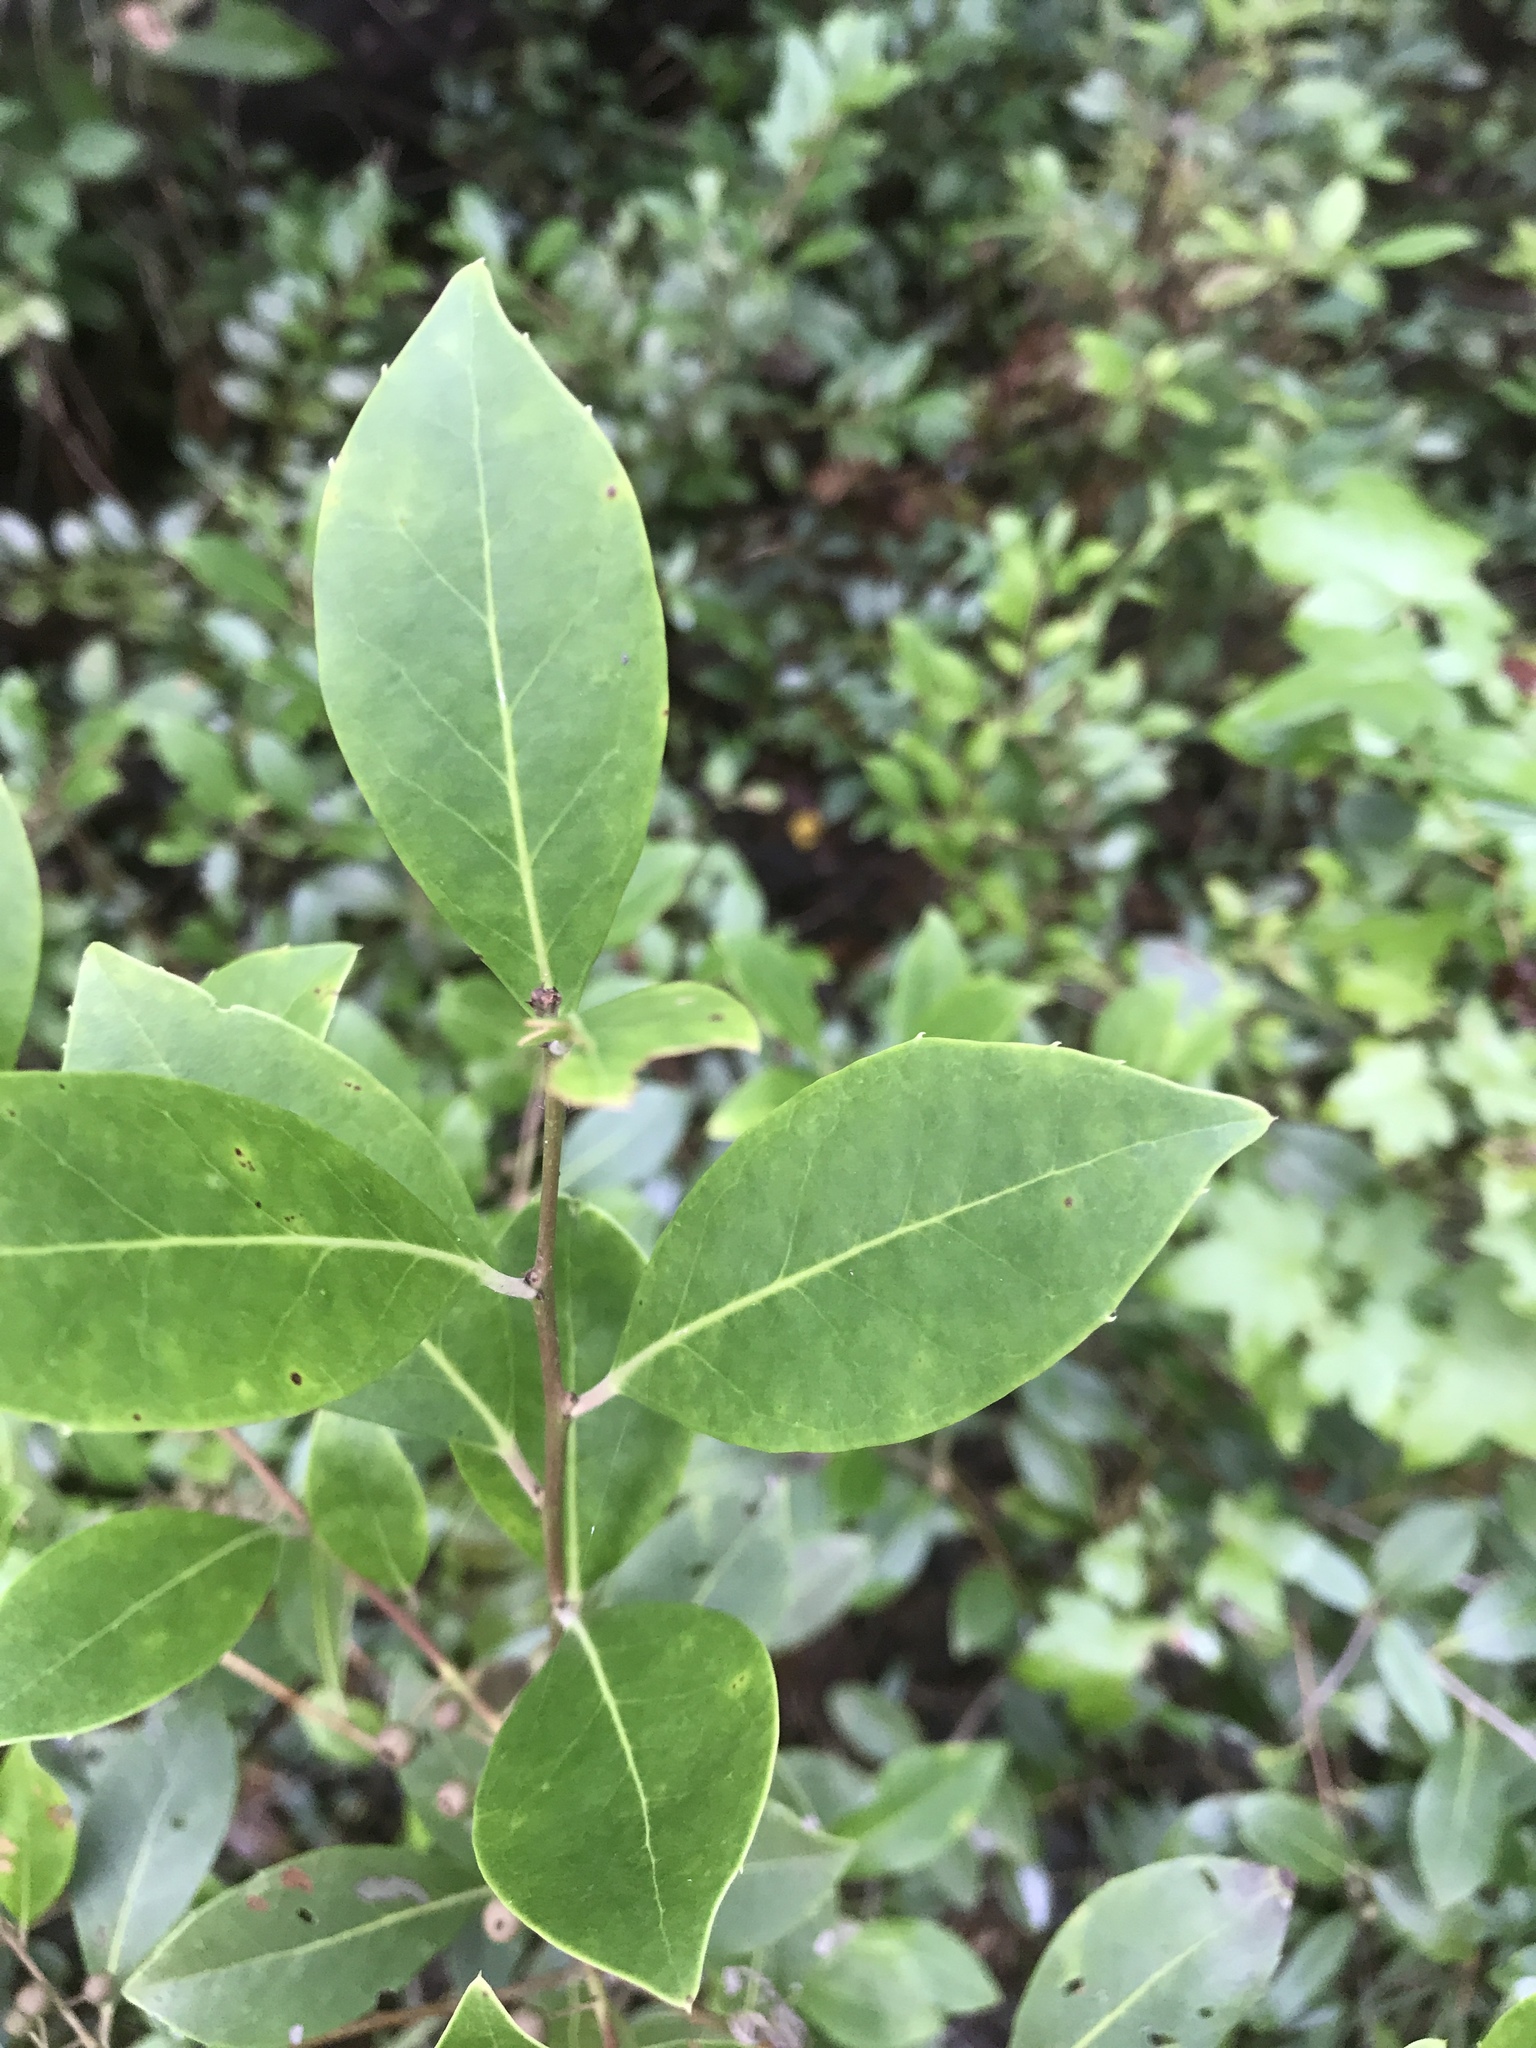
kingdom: Plantae
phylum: Tracheophyta
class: Magnoliopsida
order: Aquifoliales
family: Aquifoliaceae
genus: Ilex
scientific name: Ilex coriacea
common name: Sweet gallberry
